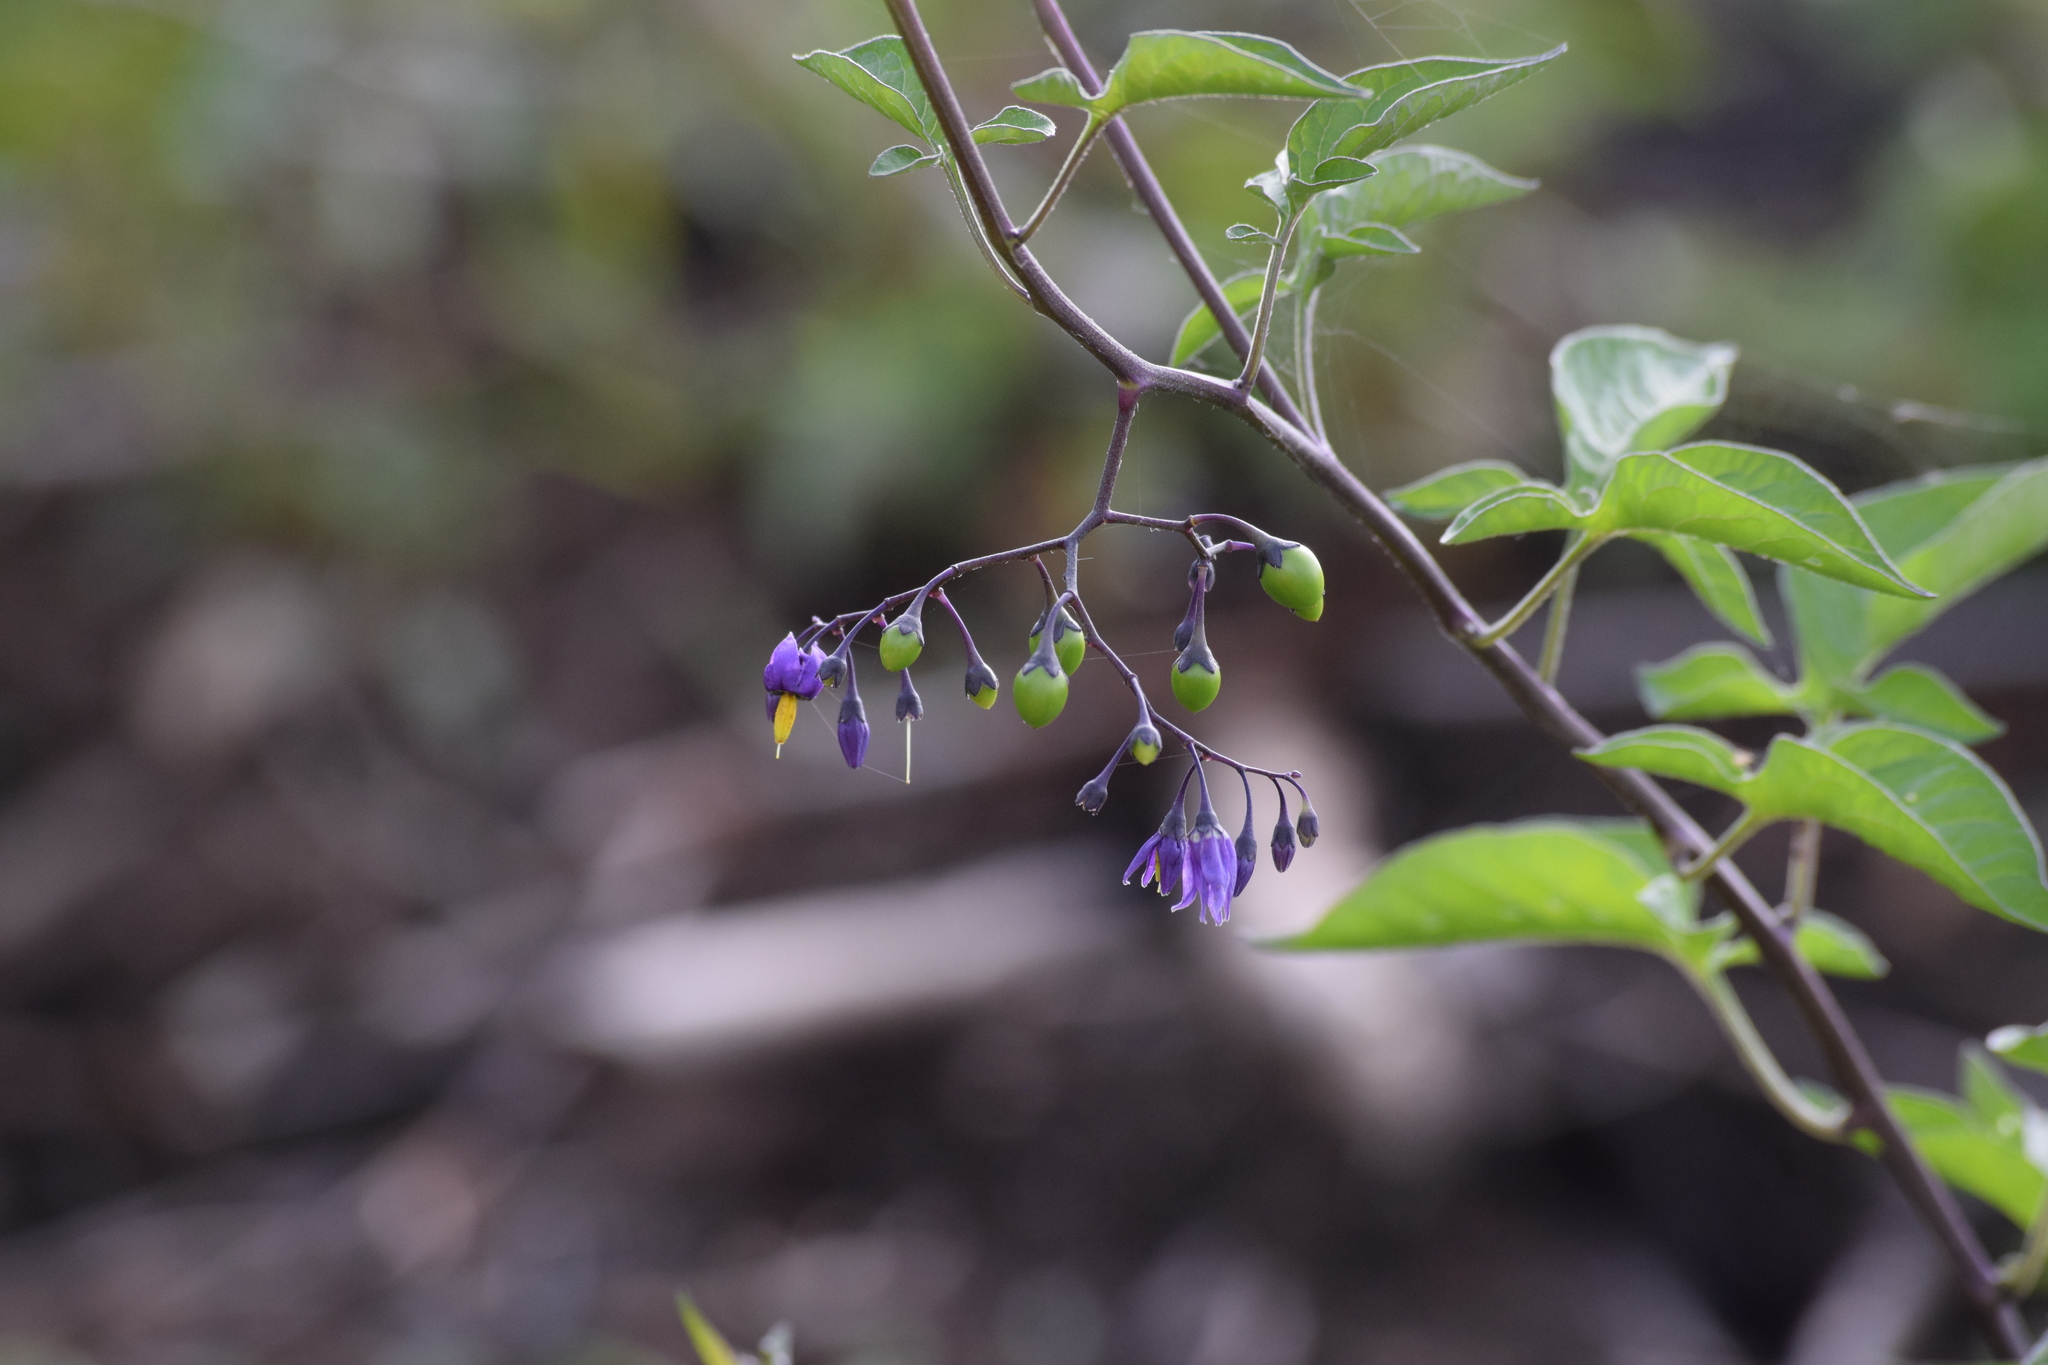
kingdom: Plantae
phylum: Tracheophyta
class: Magnoliopsida
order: Solanales
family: Solanaceae
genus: Solanum
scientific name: Solanum dulcamara
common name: Climbing nightshade
